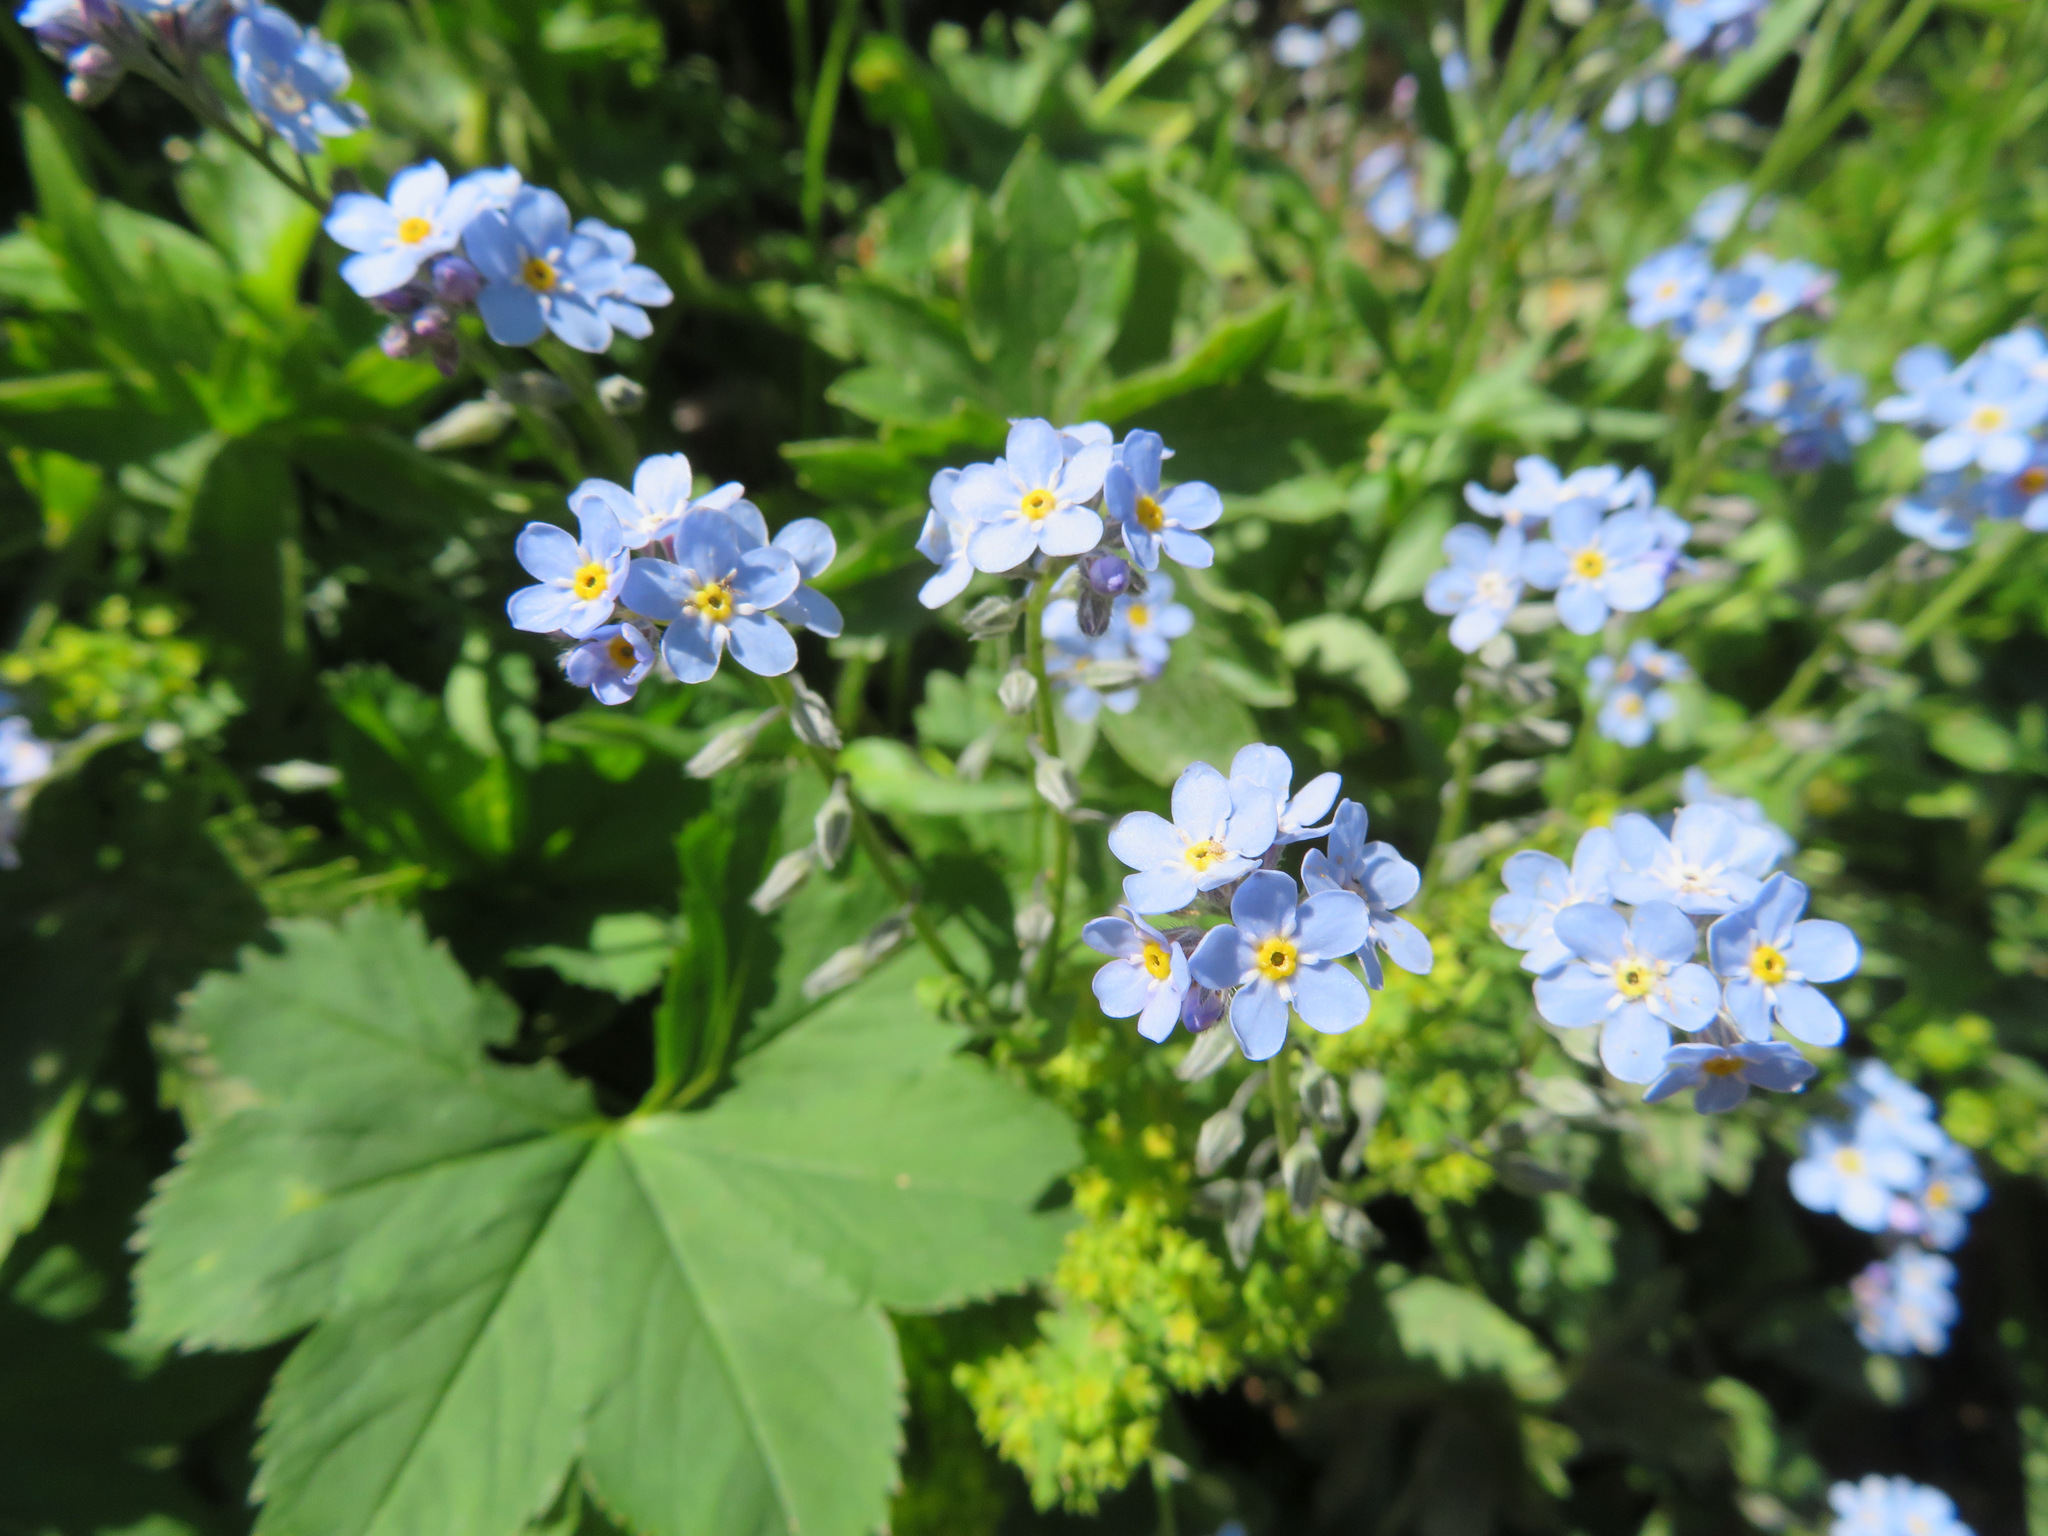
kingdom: Plantae
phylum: Tracheophyta
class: Magnoliopsida
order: Boraginales
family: Boraginaceae
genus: Myosotis
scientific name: Myosotis alpestris
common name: Alpine forget-me-not
